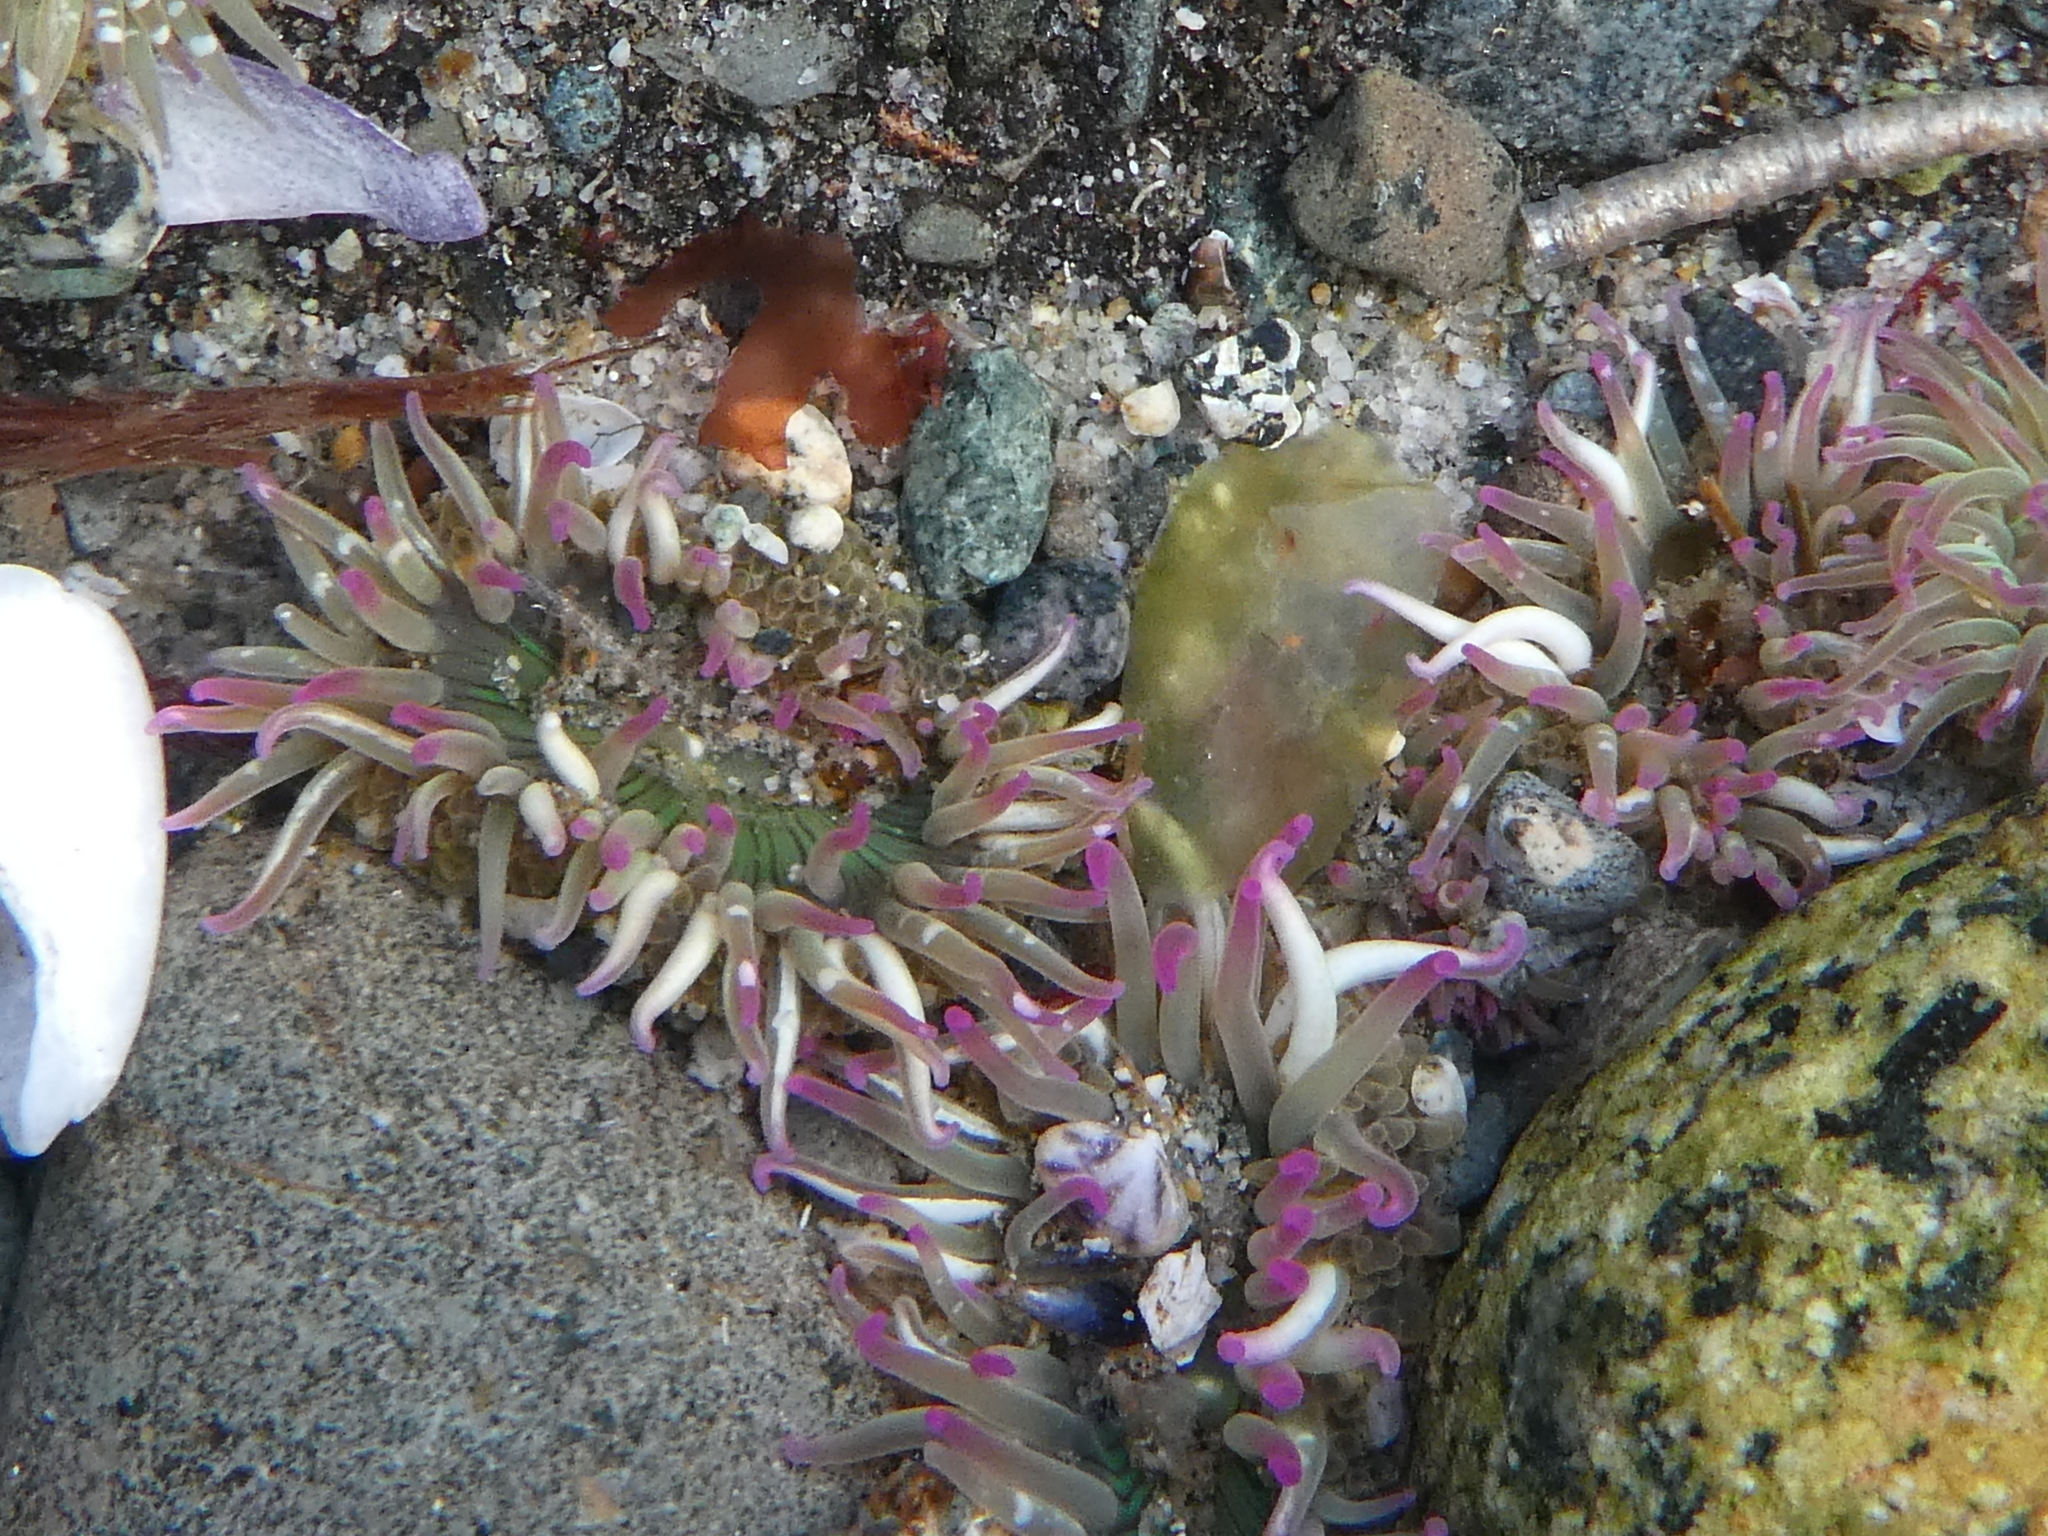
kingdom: Animalia
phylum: Cnidaria
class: Anthozoa
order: Actiniaria
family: Actiniidae
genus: Anthopleura
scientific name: Anthopleura elegantissima
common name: Clonal anemone
